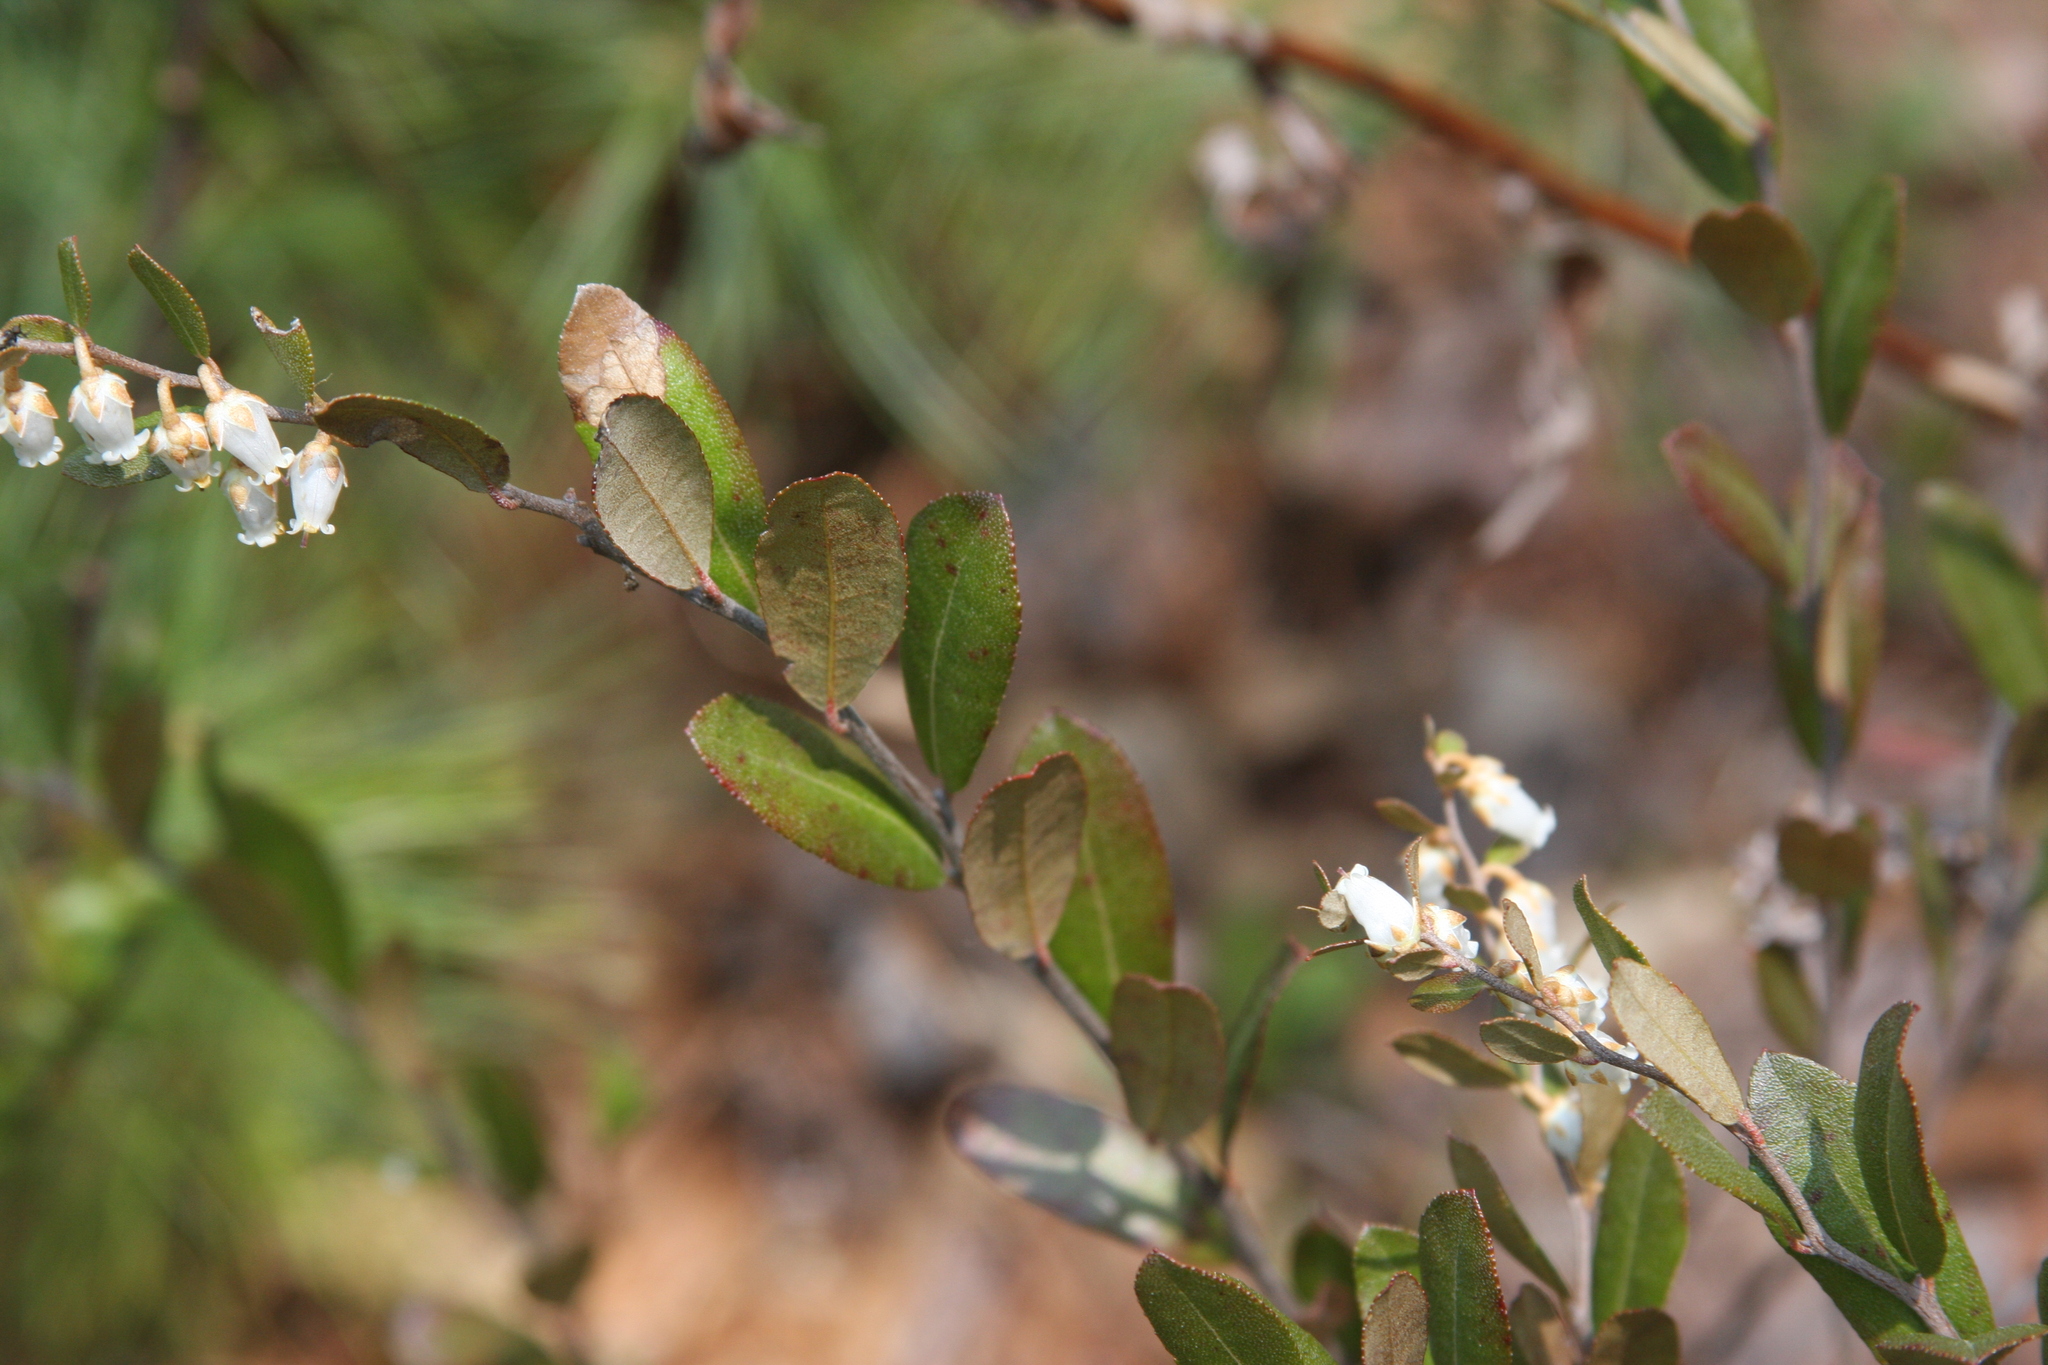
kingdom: Plantae
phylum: Tracheophyta
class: Magnoliopsida
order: Ericales
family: Ericaceae
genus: Chamaedaphne
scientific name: Chamaedaphne calyculata
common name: Leatherleaf
